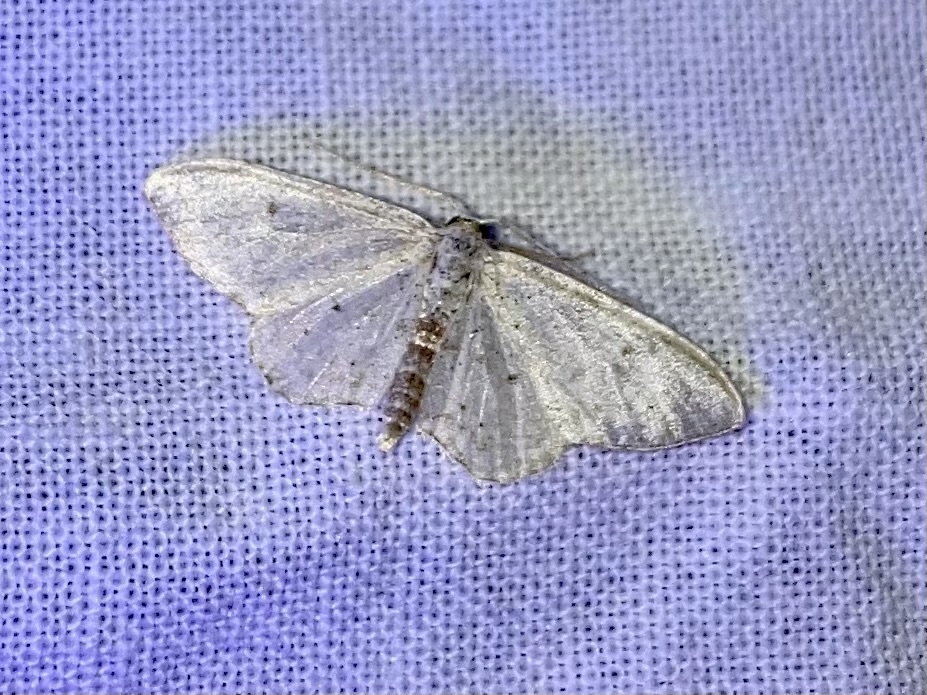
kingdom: Animalia
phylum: Arthropoda
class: Insecta
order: Lepidoptera
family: Geometridae
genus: Idaea
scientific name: Idaea seriata
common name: Small dusty wave
